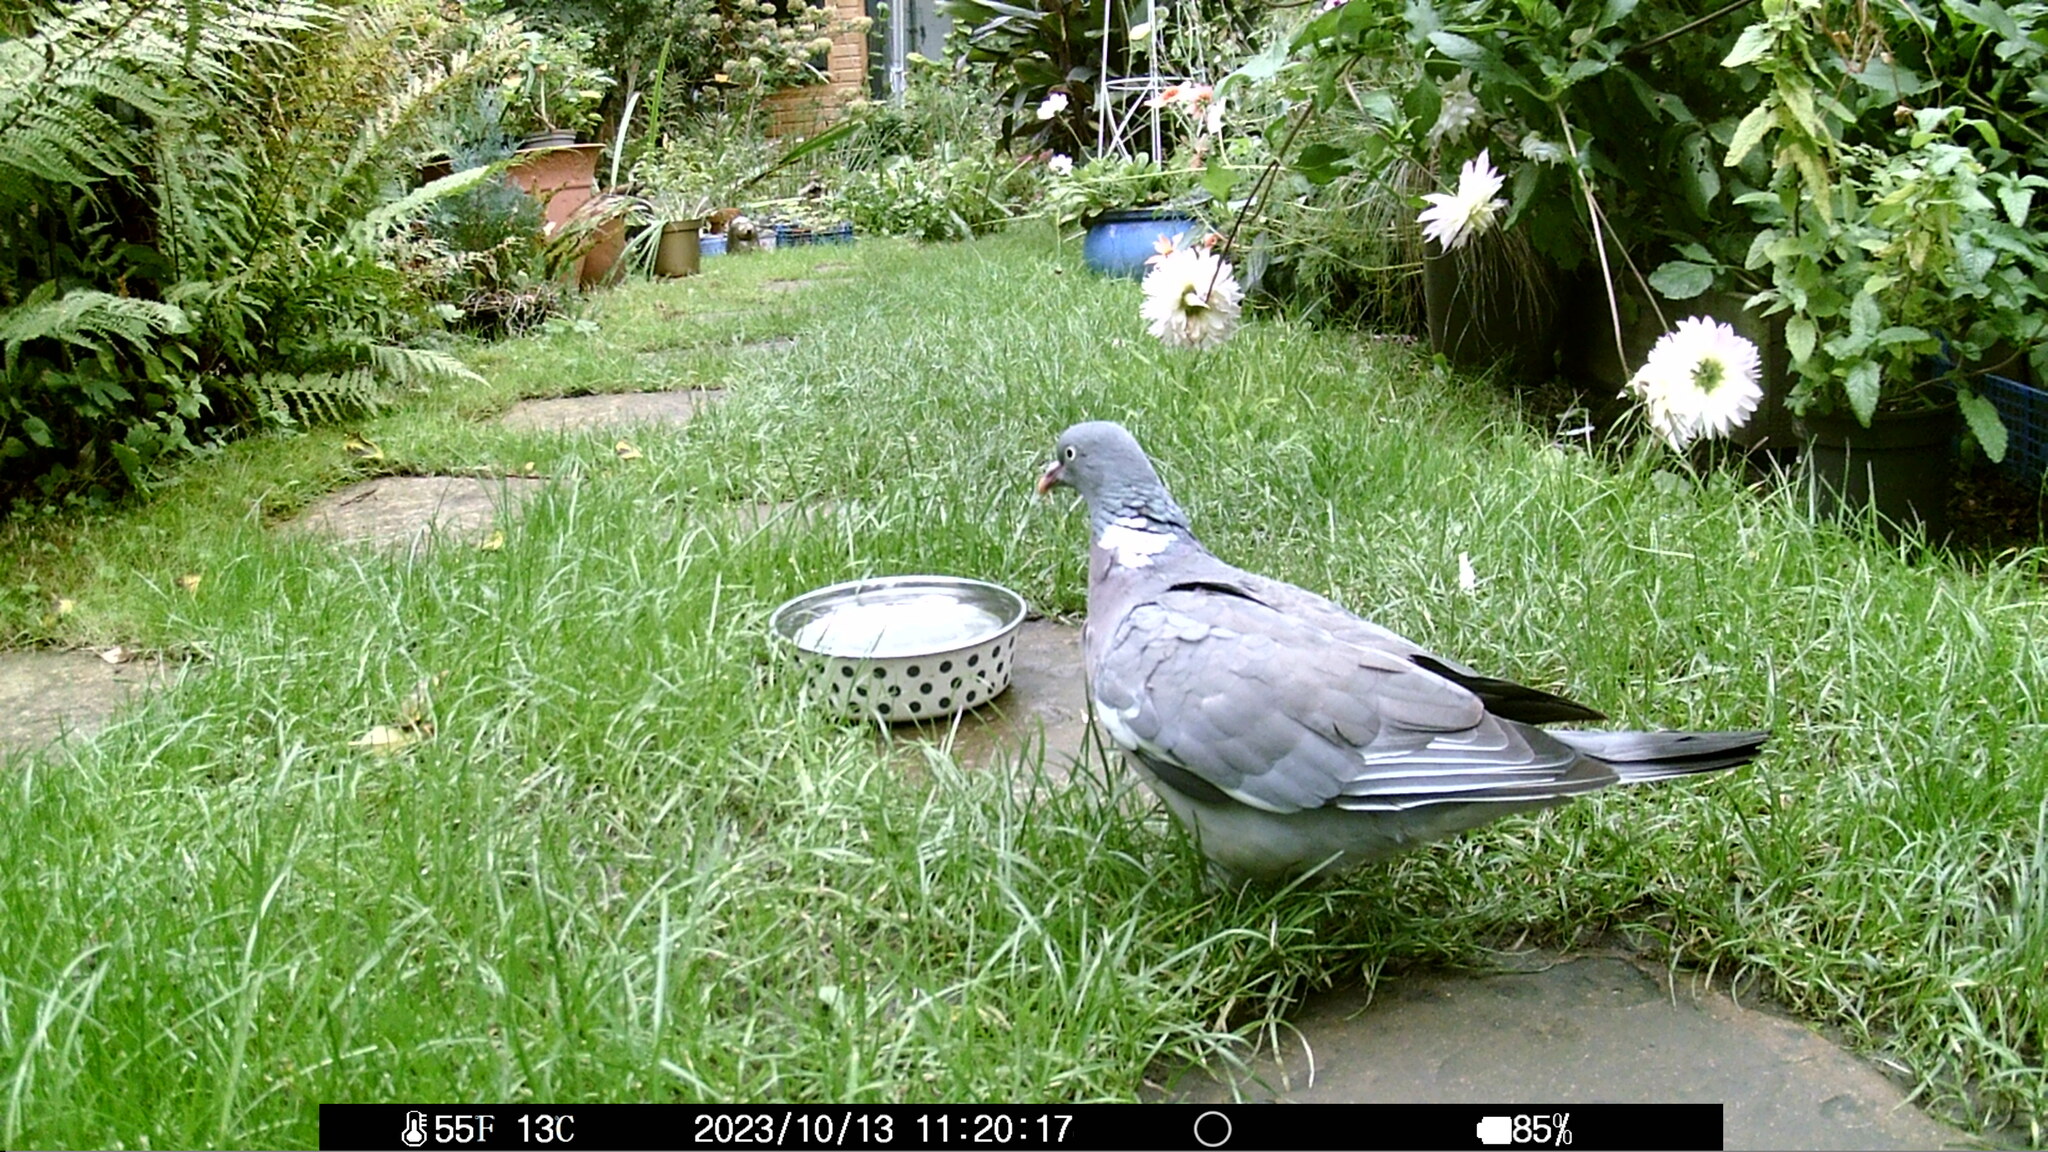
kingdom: Animalia
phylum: Chordata
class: Aves
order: Columbiformes
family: Columbidae
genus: Columba
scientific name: Columba palumbus
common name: Common wood pigeon
